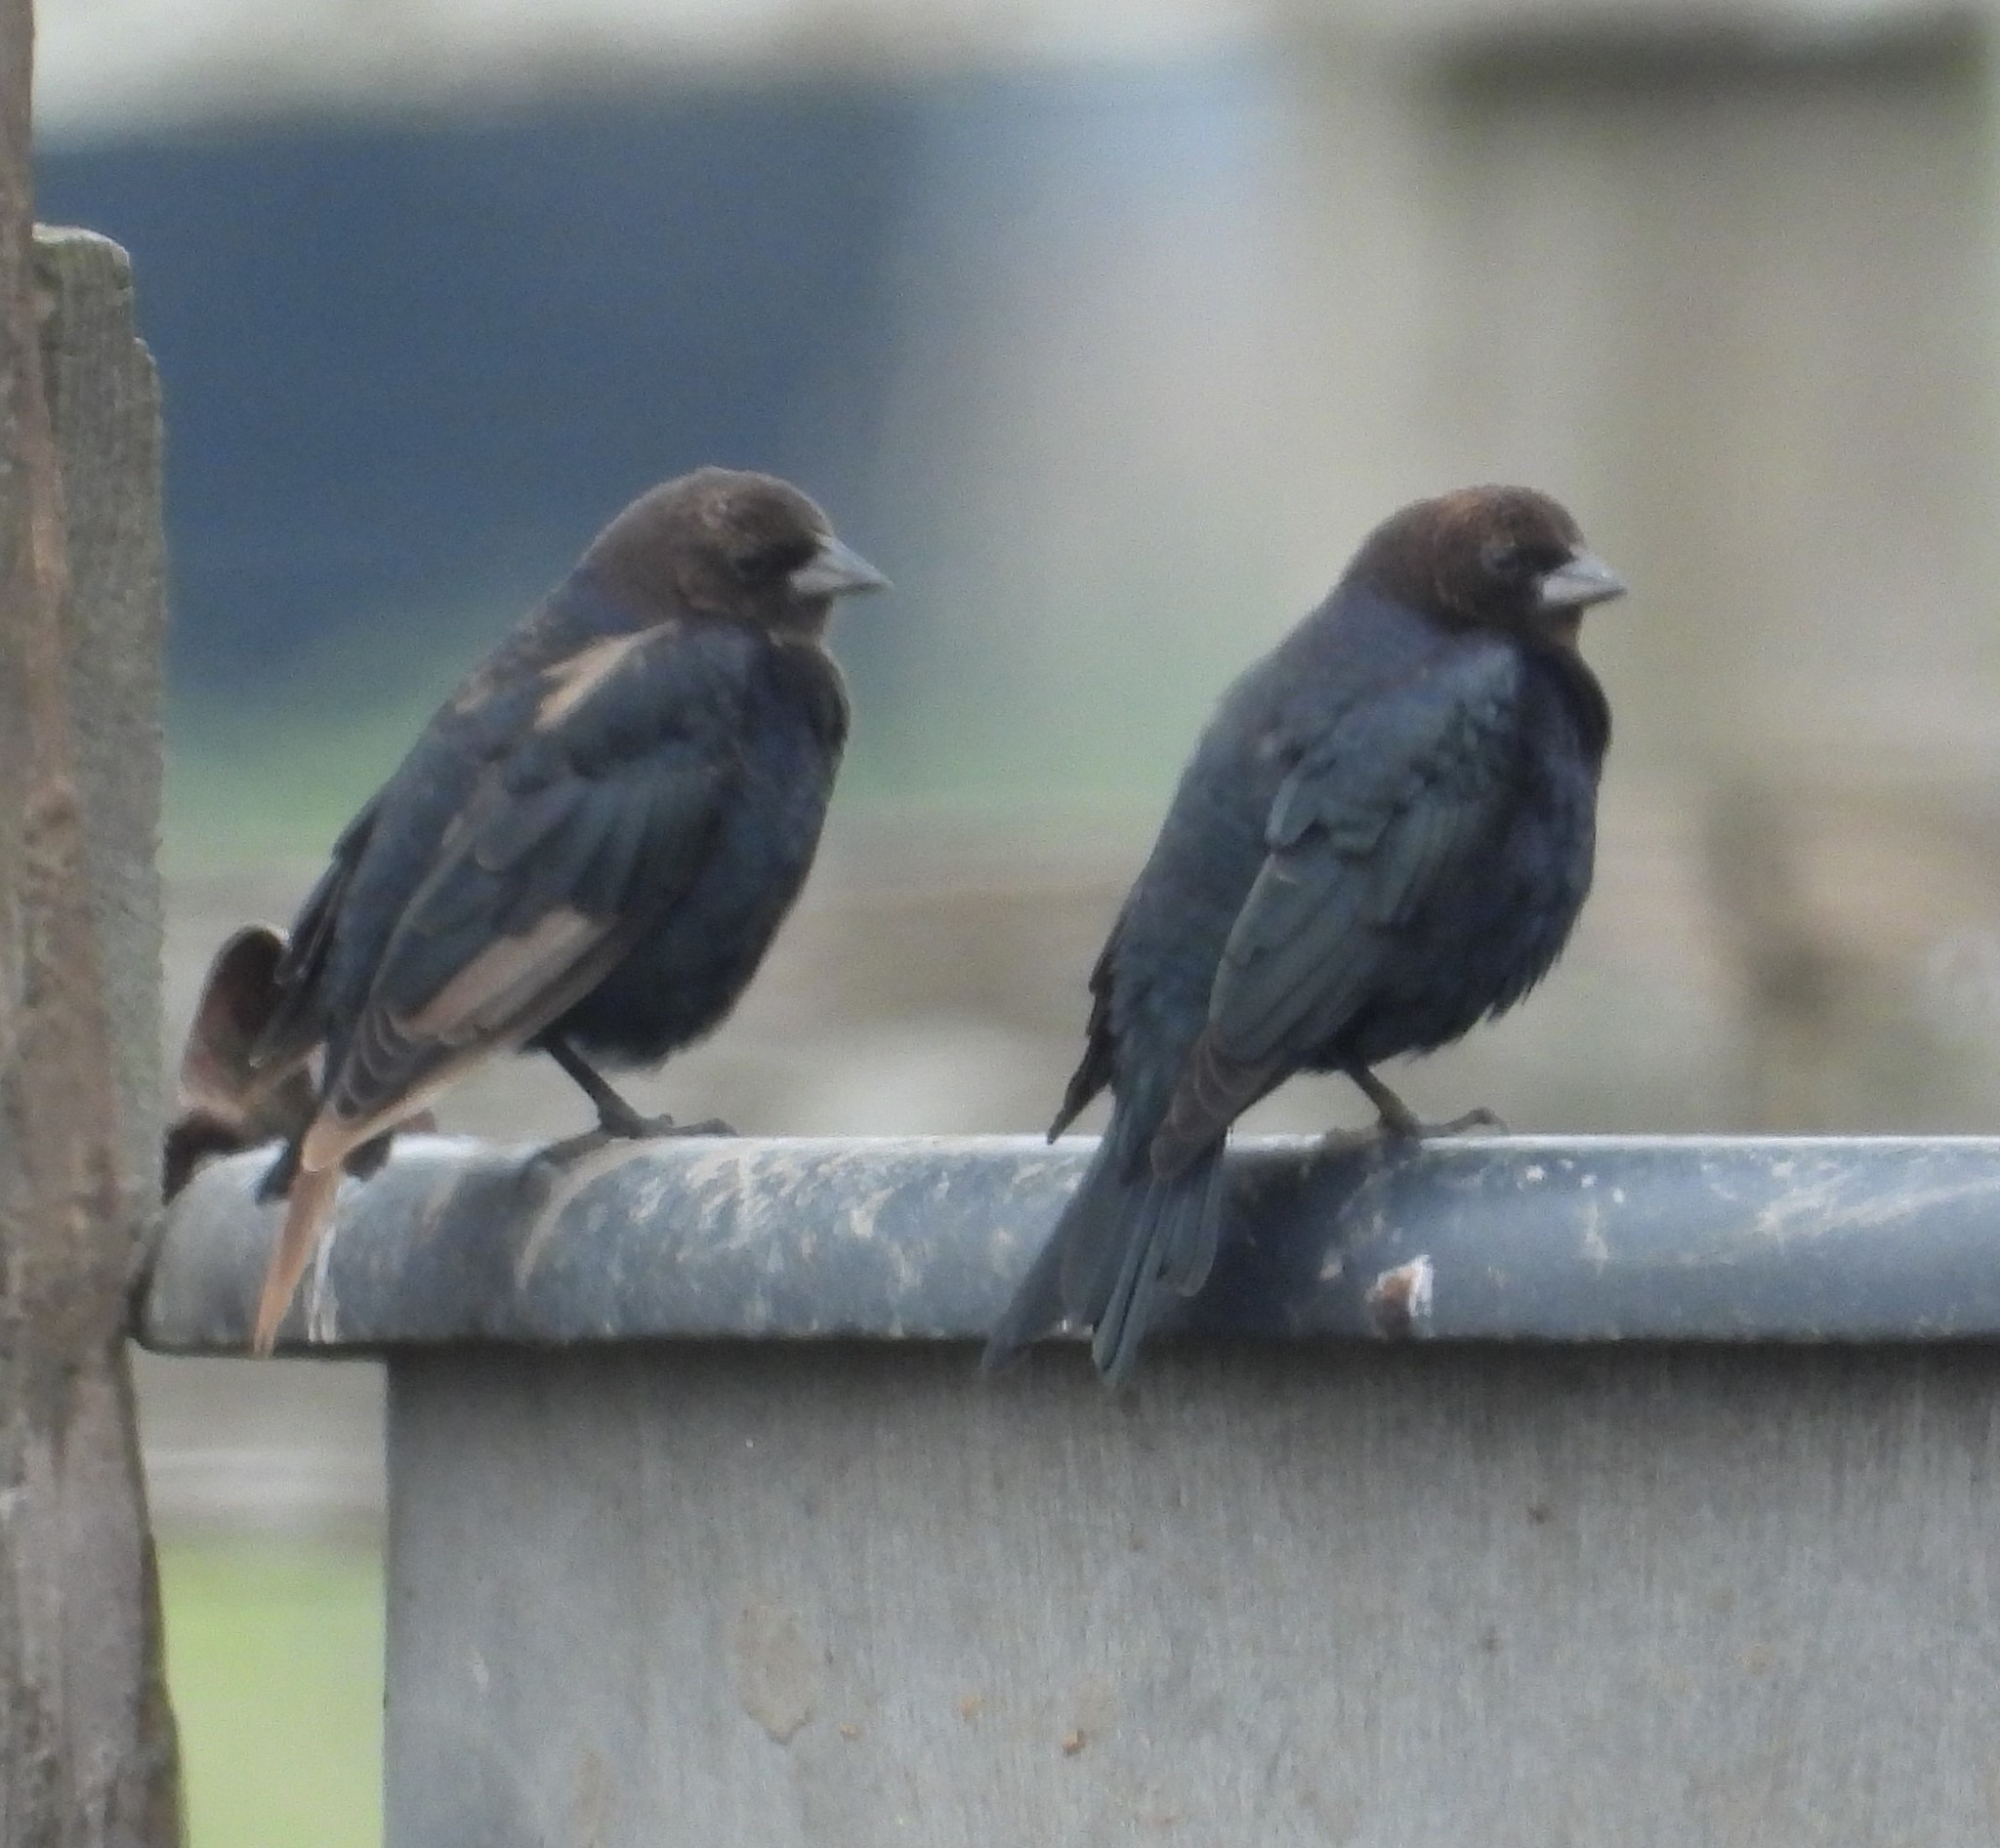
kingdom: Animalia
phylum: Chordata
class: Aves
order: Passeriformes
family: Icteridae
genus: Molothrus
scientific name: Molothrus ater
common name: Brown-headed cowbird
